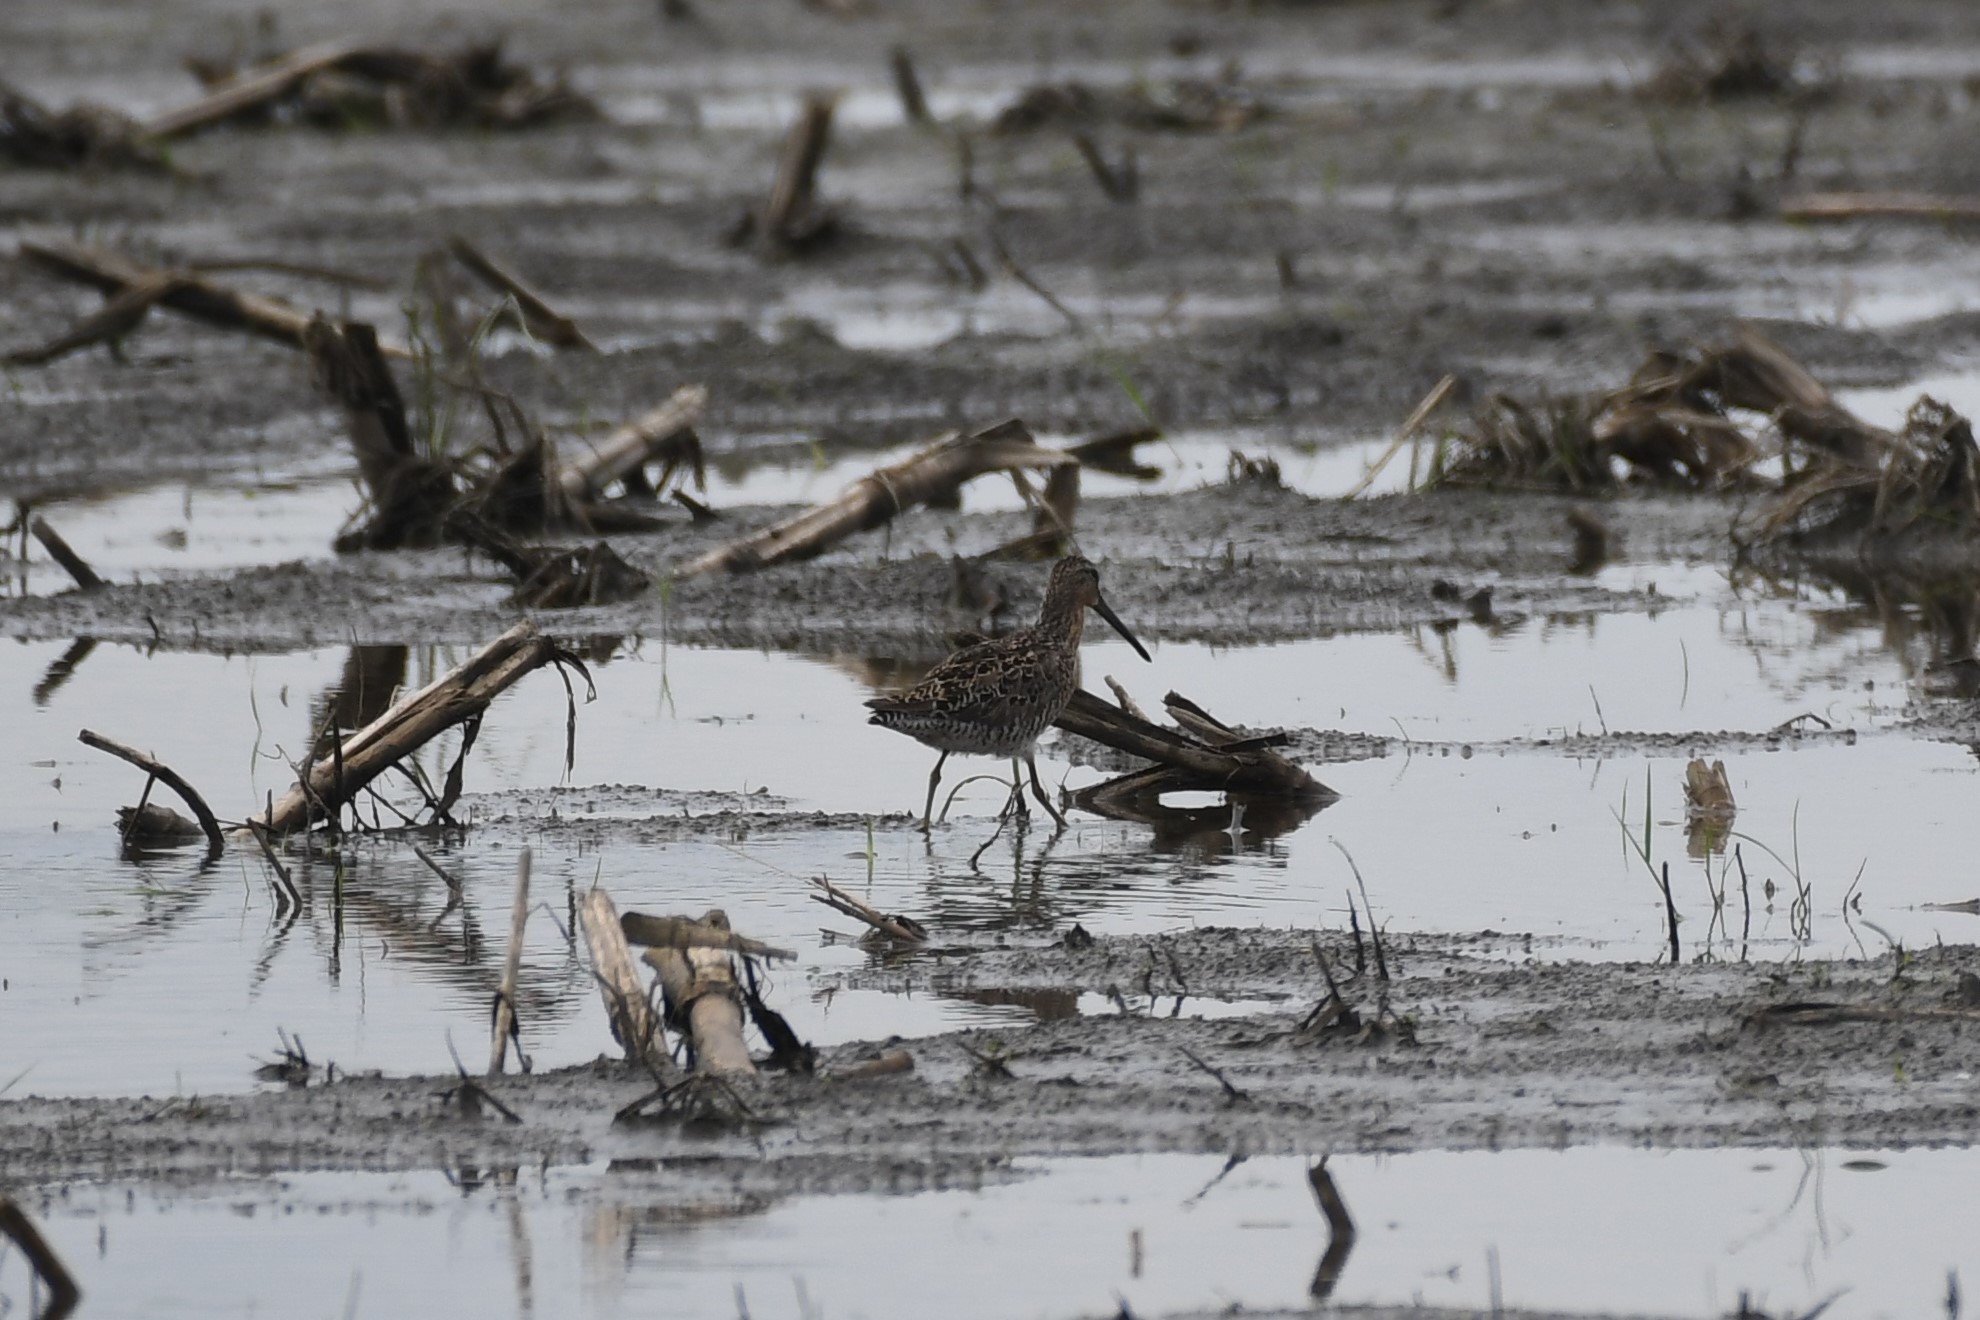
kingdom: Animalia
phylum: Chordata
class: Aves
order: Charadriiformes
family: Scolopacidae
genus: Limnodromus
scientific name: Limnodromus griseus
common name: Short-billed dowitcher
